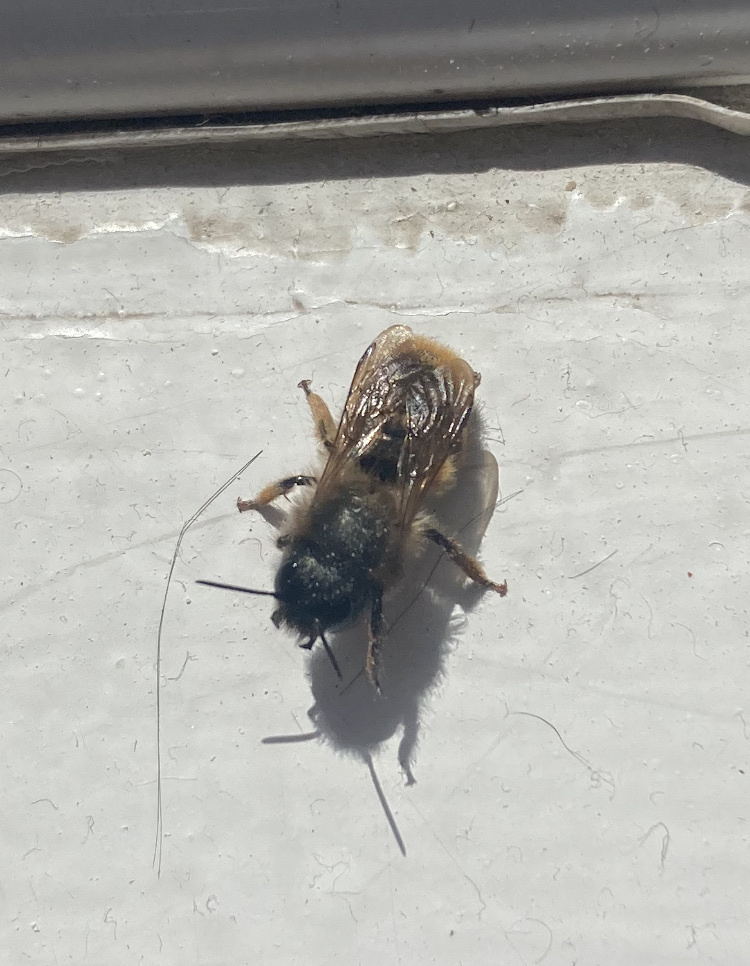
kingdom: Animalia
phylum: Arthropoda
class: Insecta
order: Hymenoptera
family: Megachilidae
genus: Osmia
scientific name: Osmia bicornis
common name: Red mason bee
